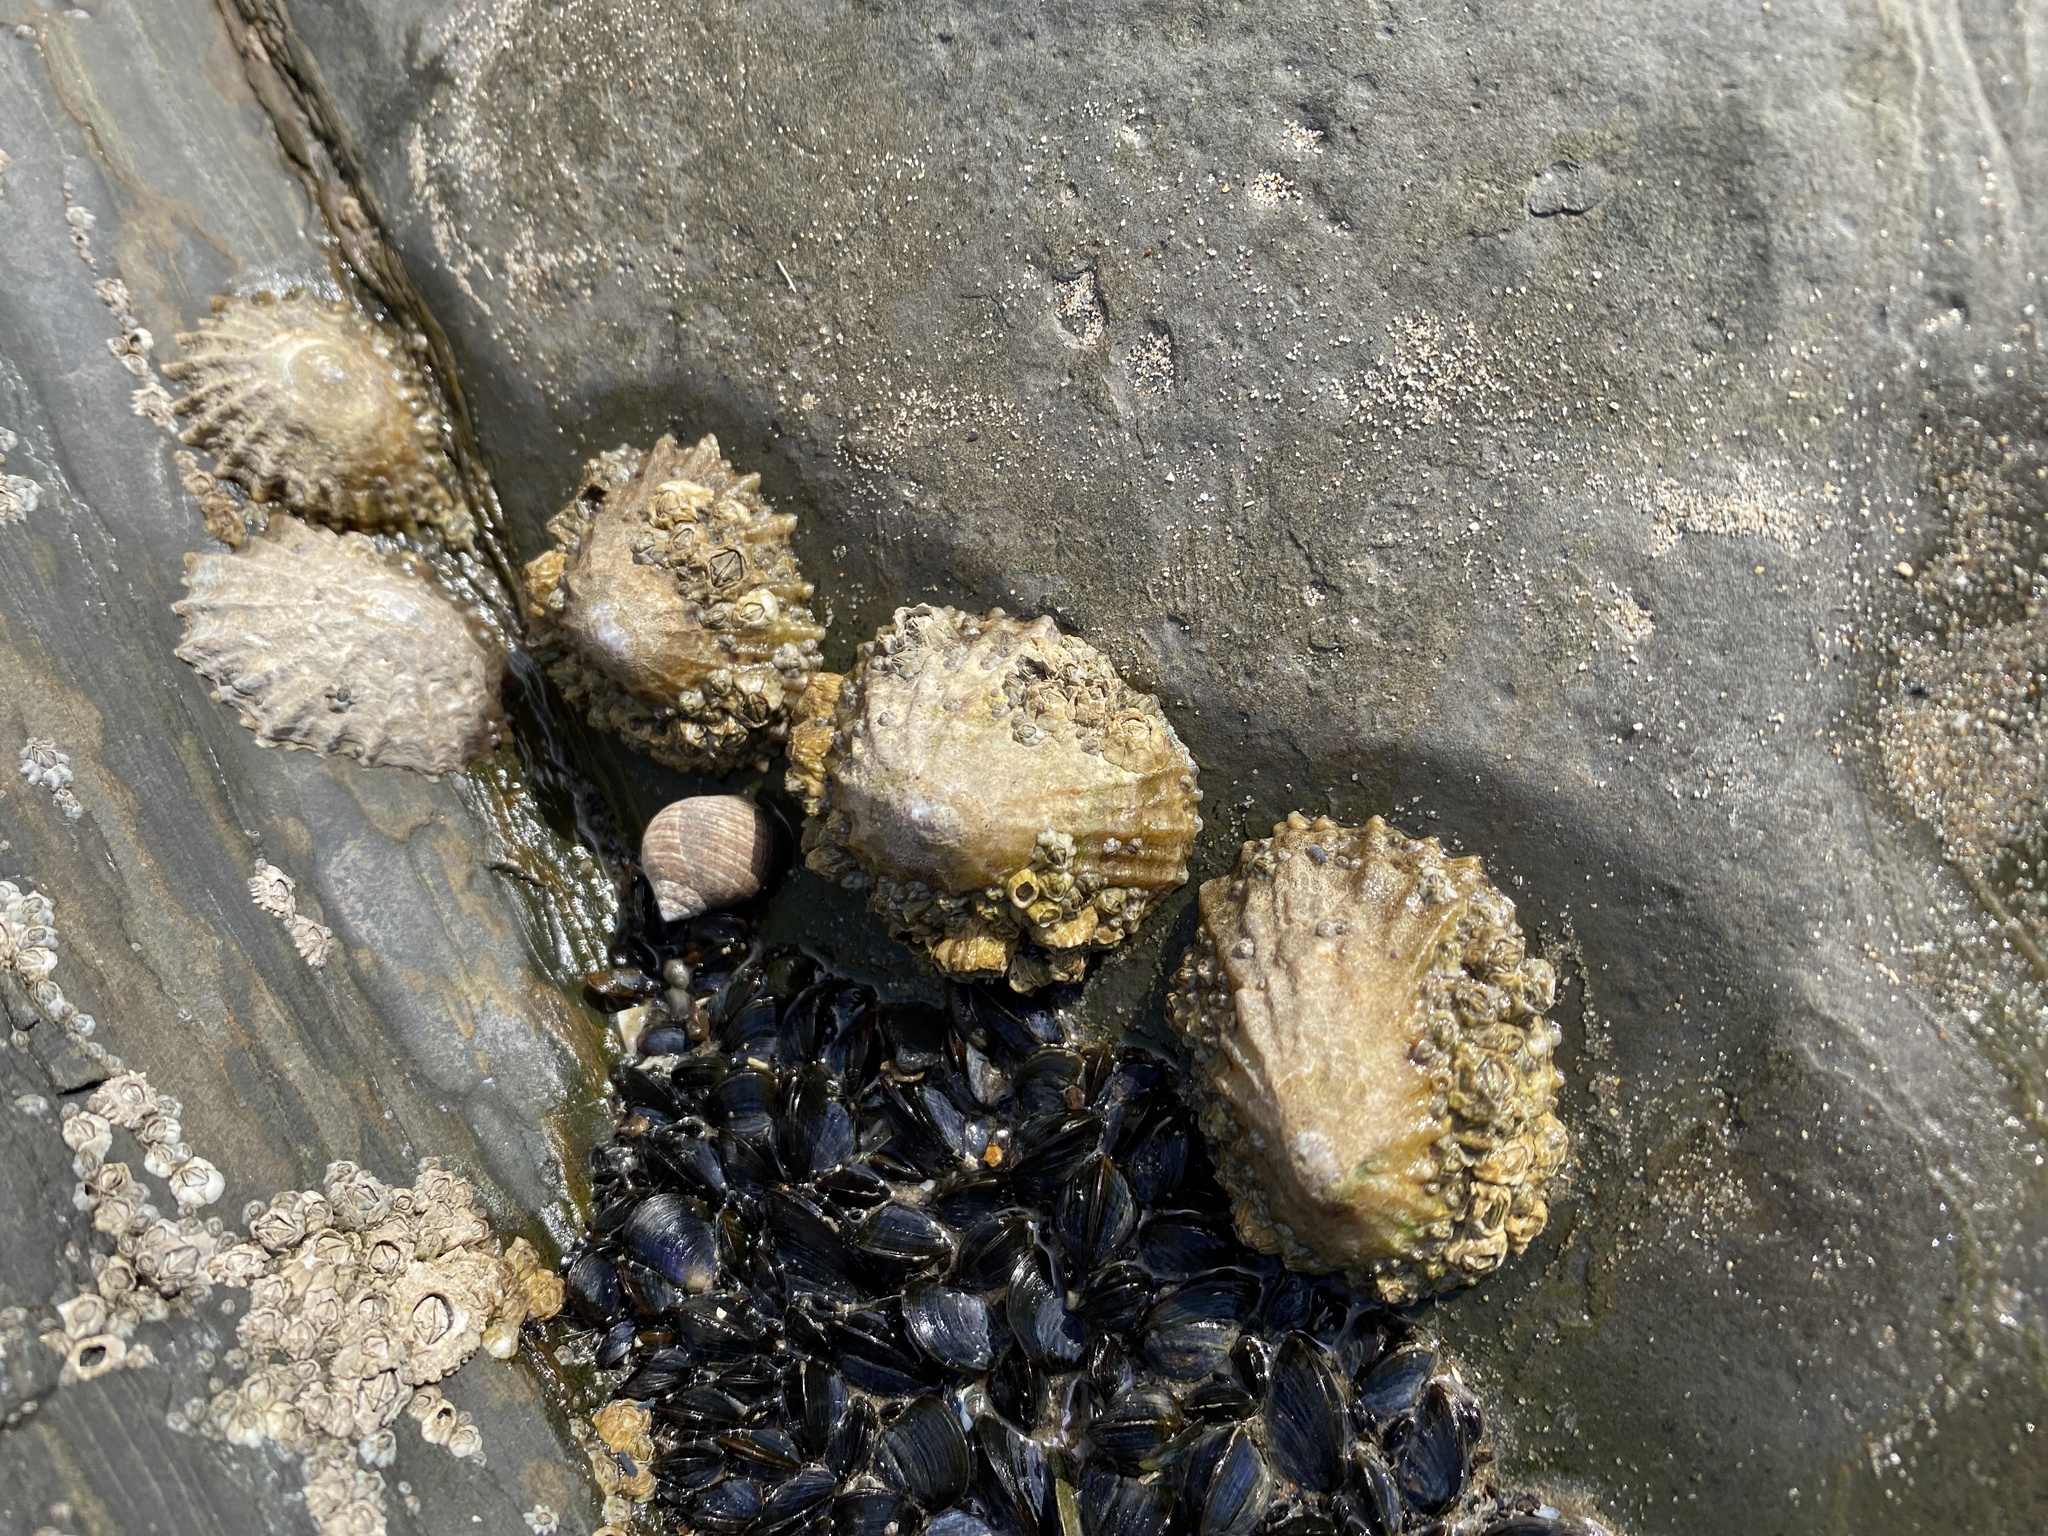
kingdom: Animalia
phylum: Mollusca
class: Gastropoda
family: Patellidae
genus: Patella
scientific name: Patella
